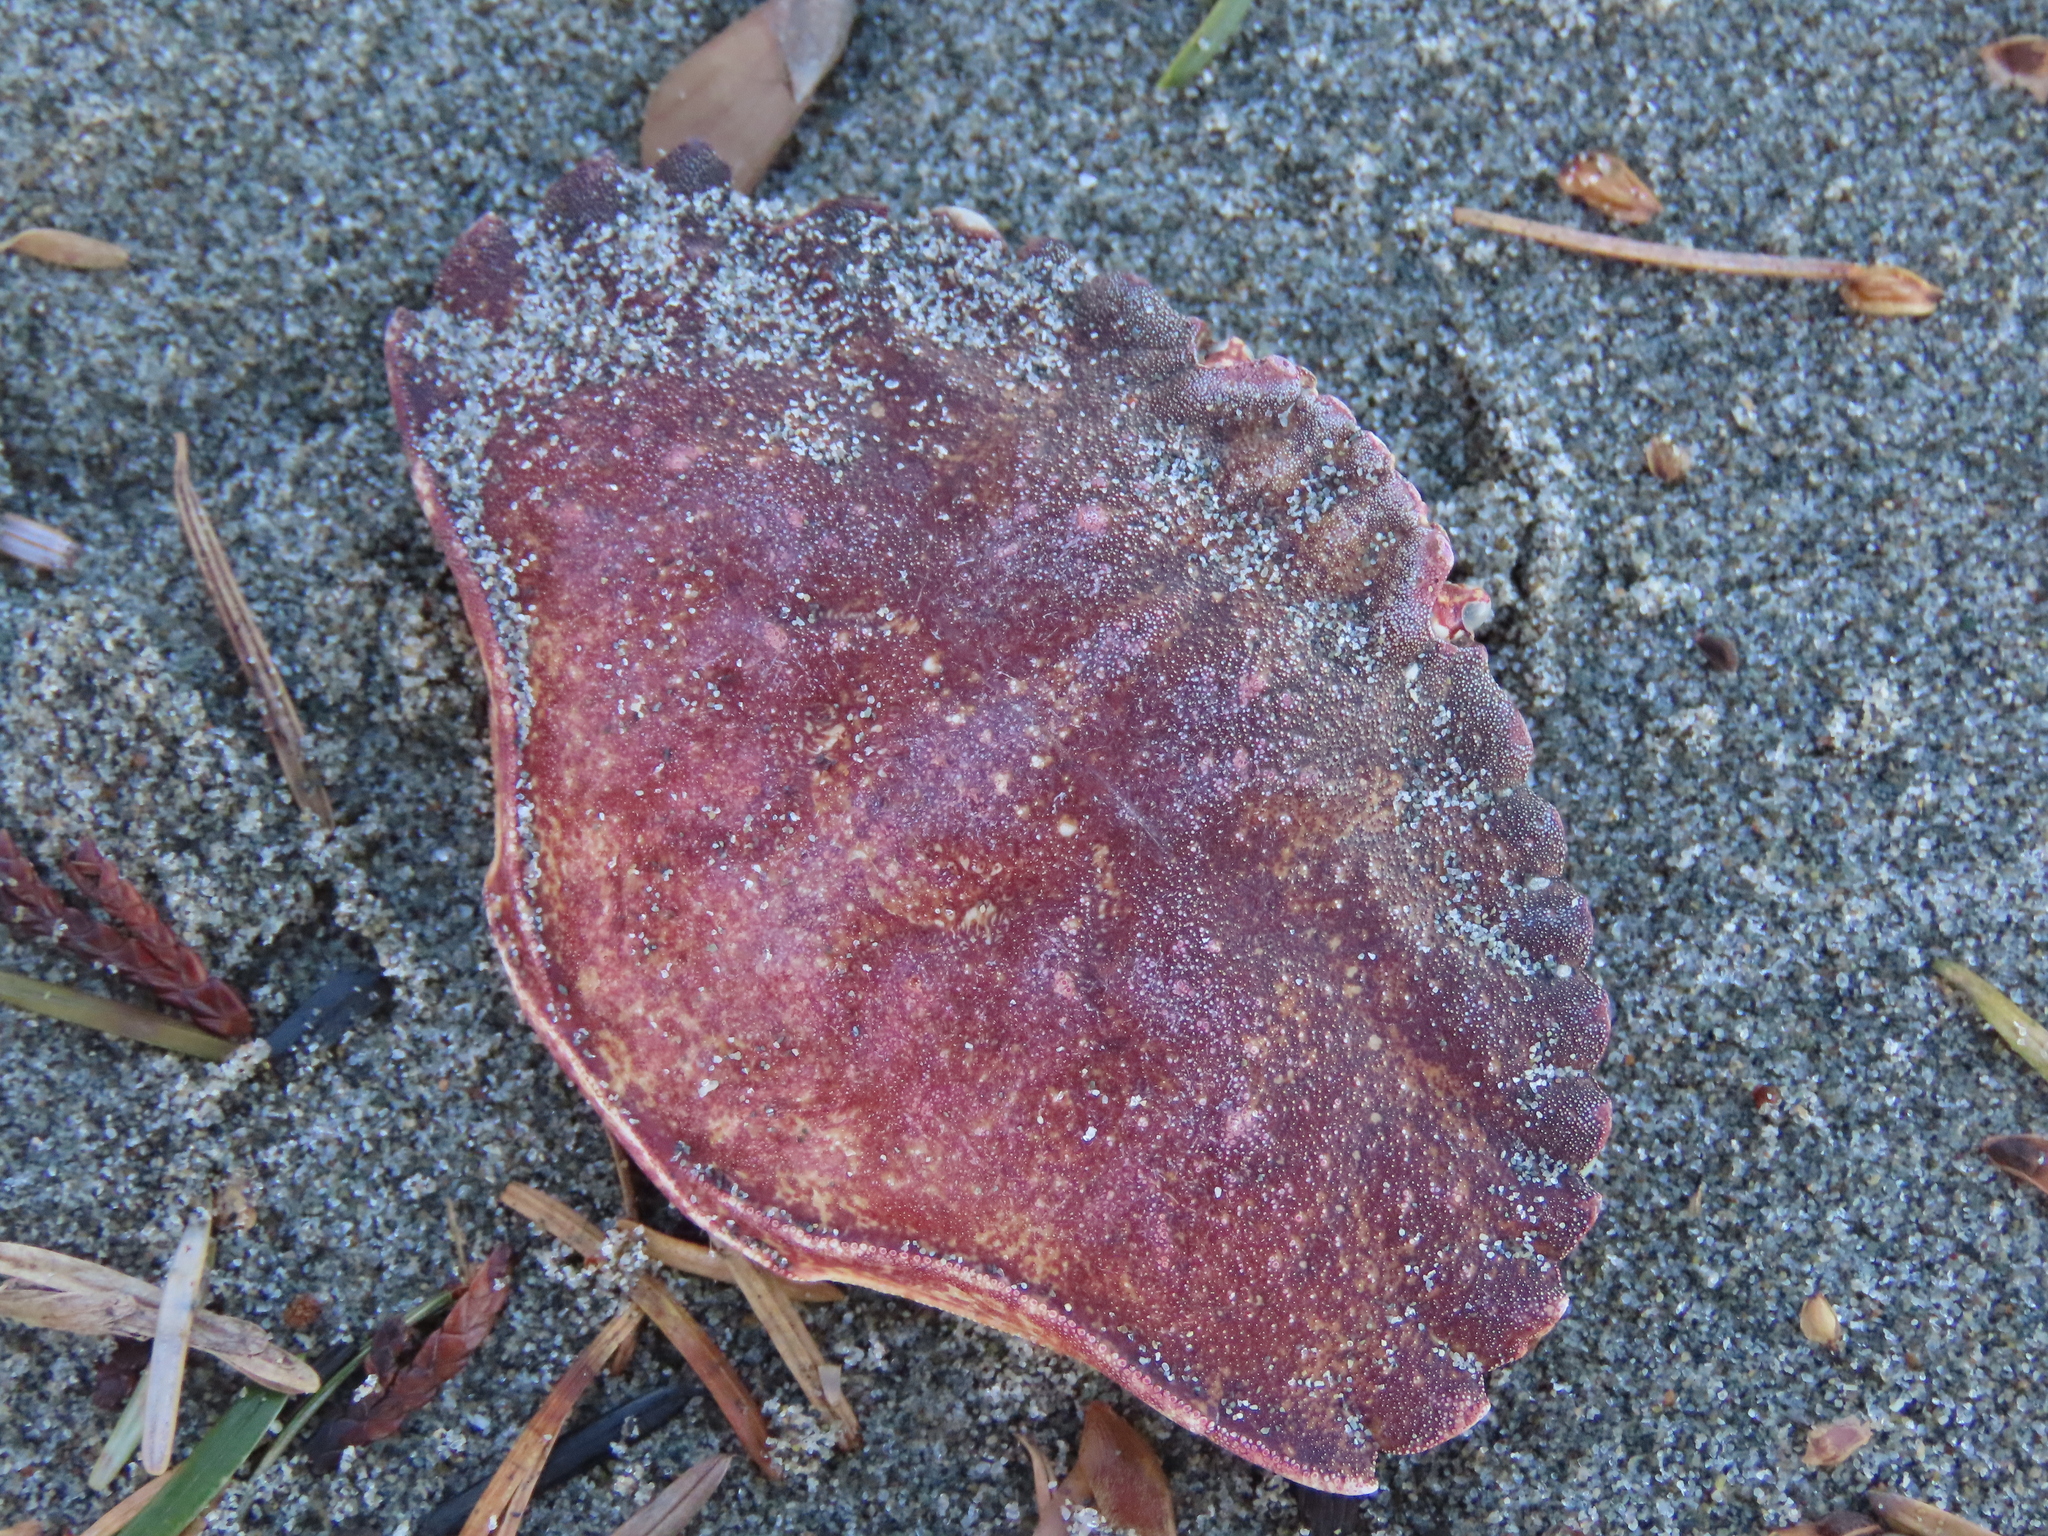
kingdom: Animalia
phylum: Arthropoda
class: Malacostraca
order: Decapoda
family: Cancridae
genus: Cancer
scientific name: Cancer productus
